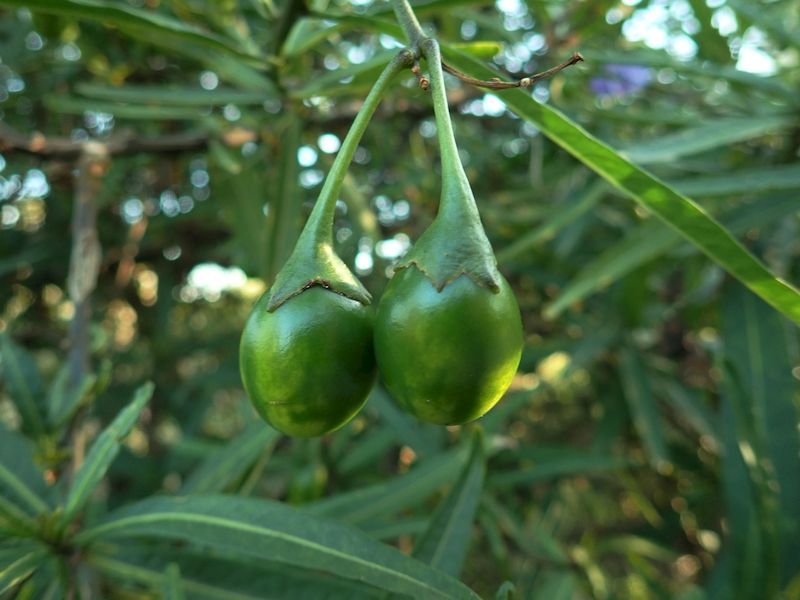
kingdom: Plantae
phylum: Tracheophyta
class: Magnoliopsida
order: Solanales
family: Solanaceae
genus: Solanum
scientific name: Solanum laciniatum
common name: Kangaroo-apple
